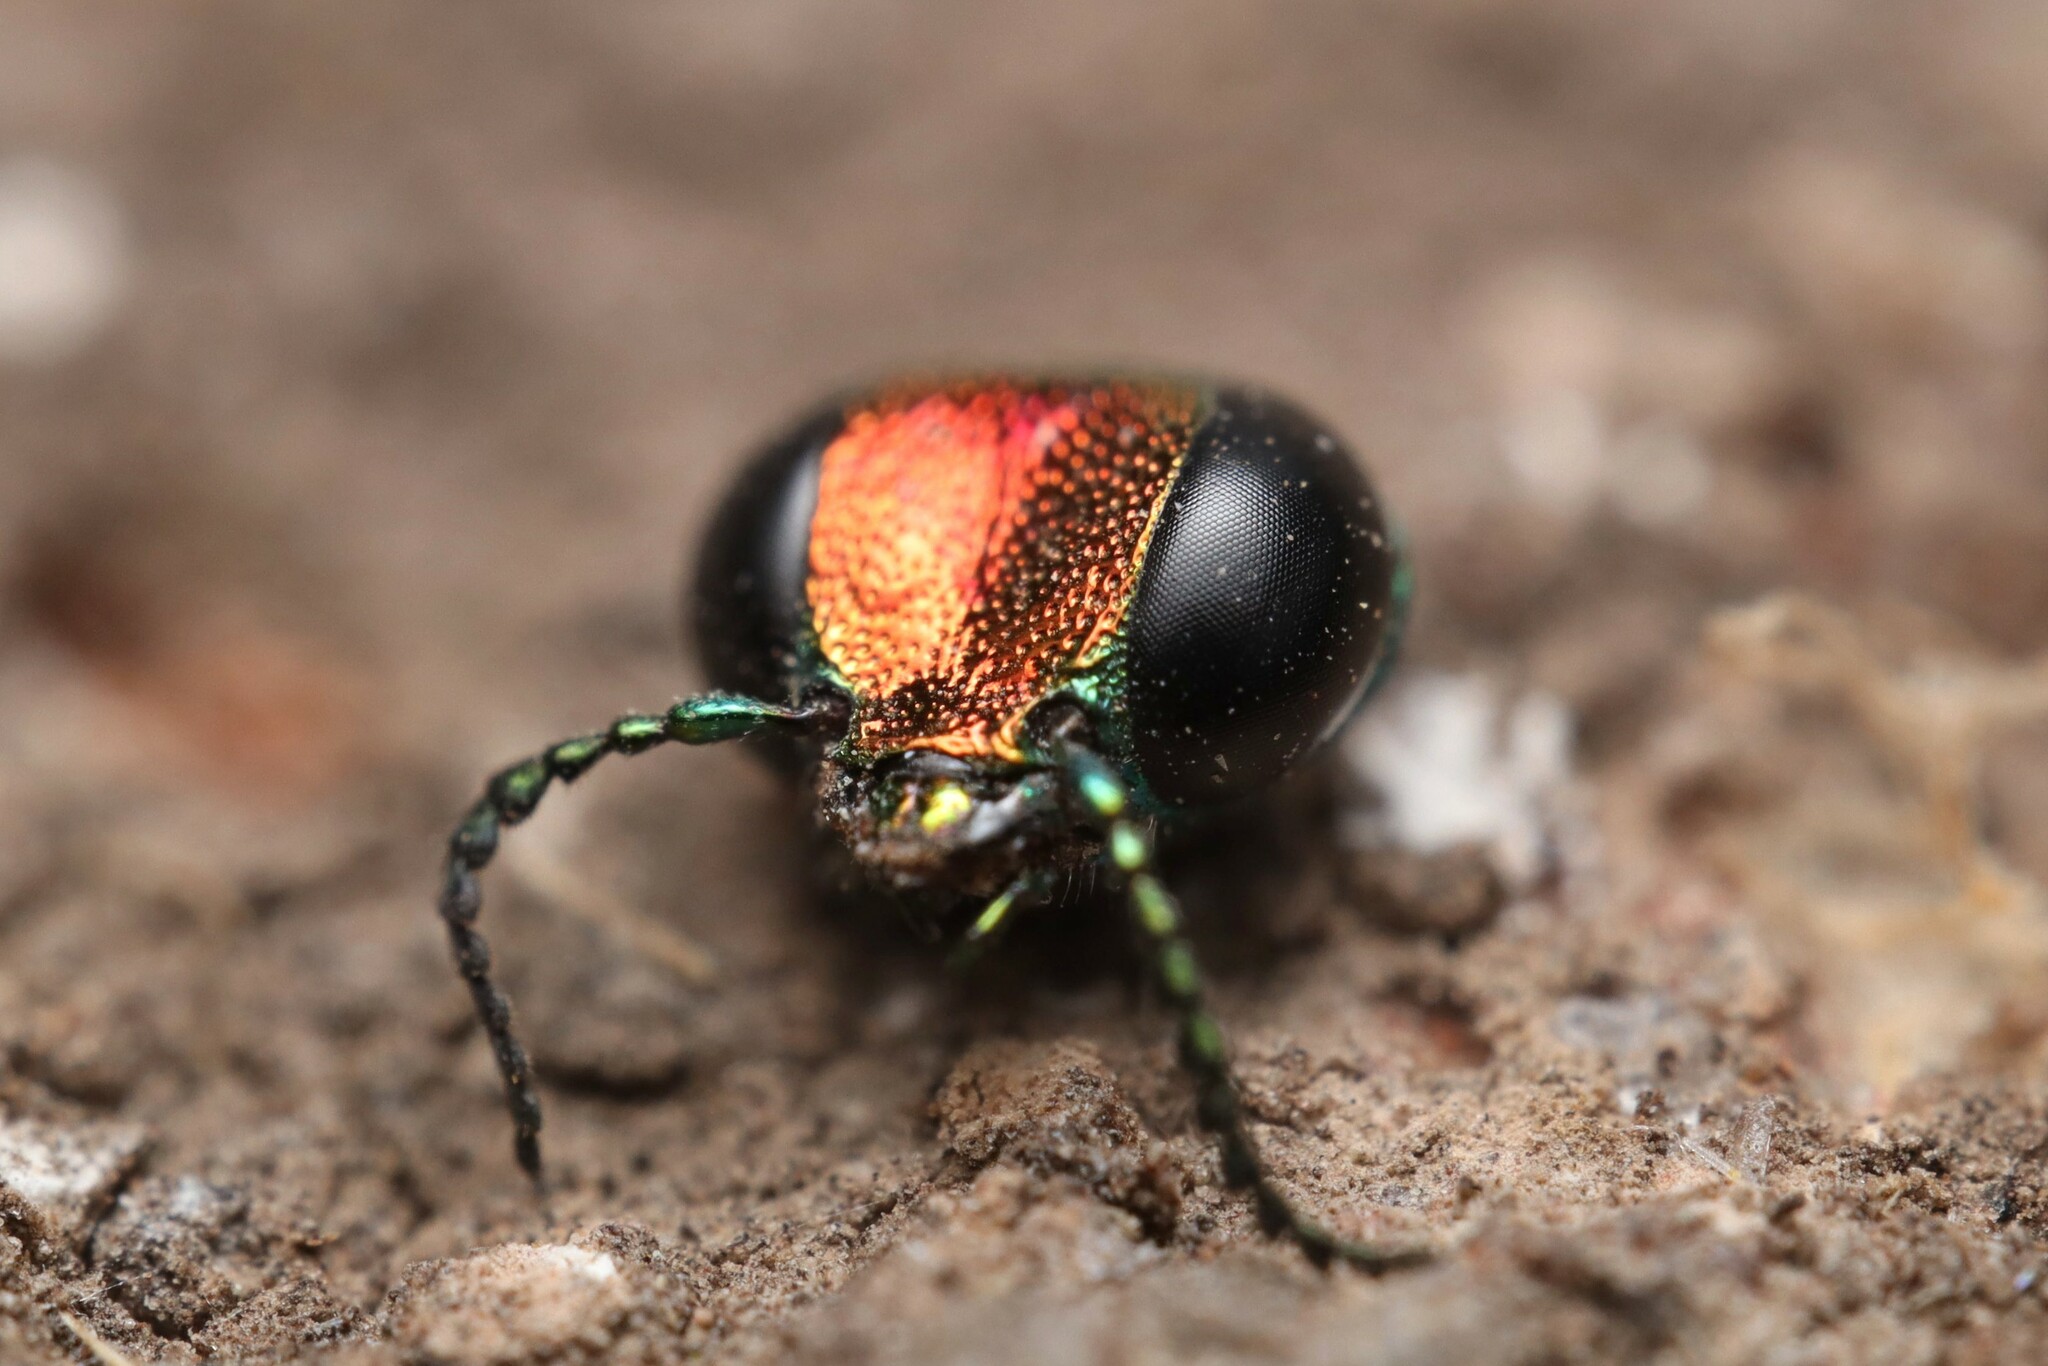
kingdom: Animalia
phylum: Arthropoda
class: Insecta
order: Coleoptera
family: Buprestidae
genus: Cylindrophora
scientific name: Cylindrophora
